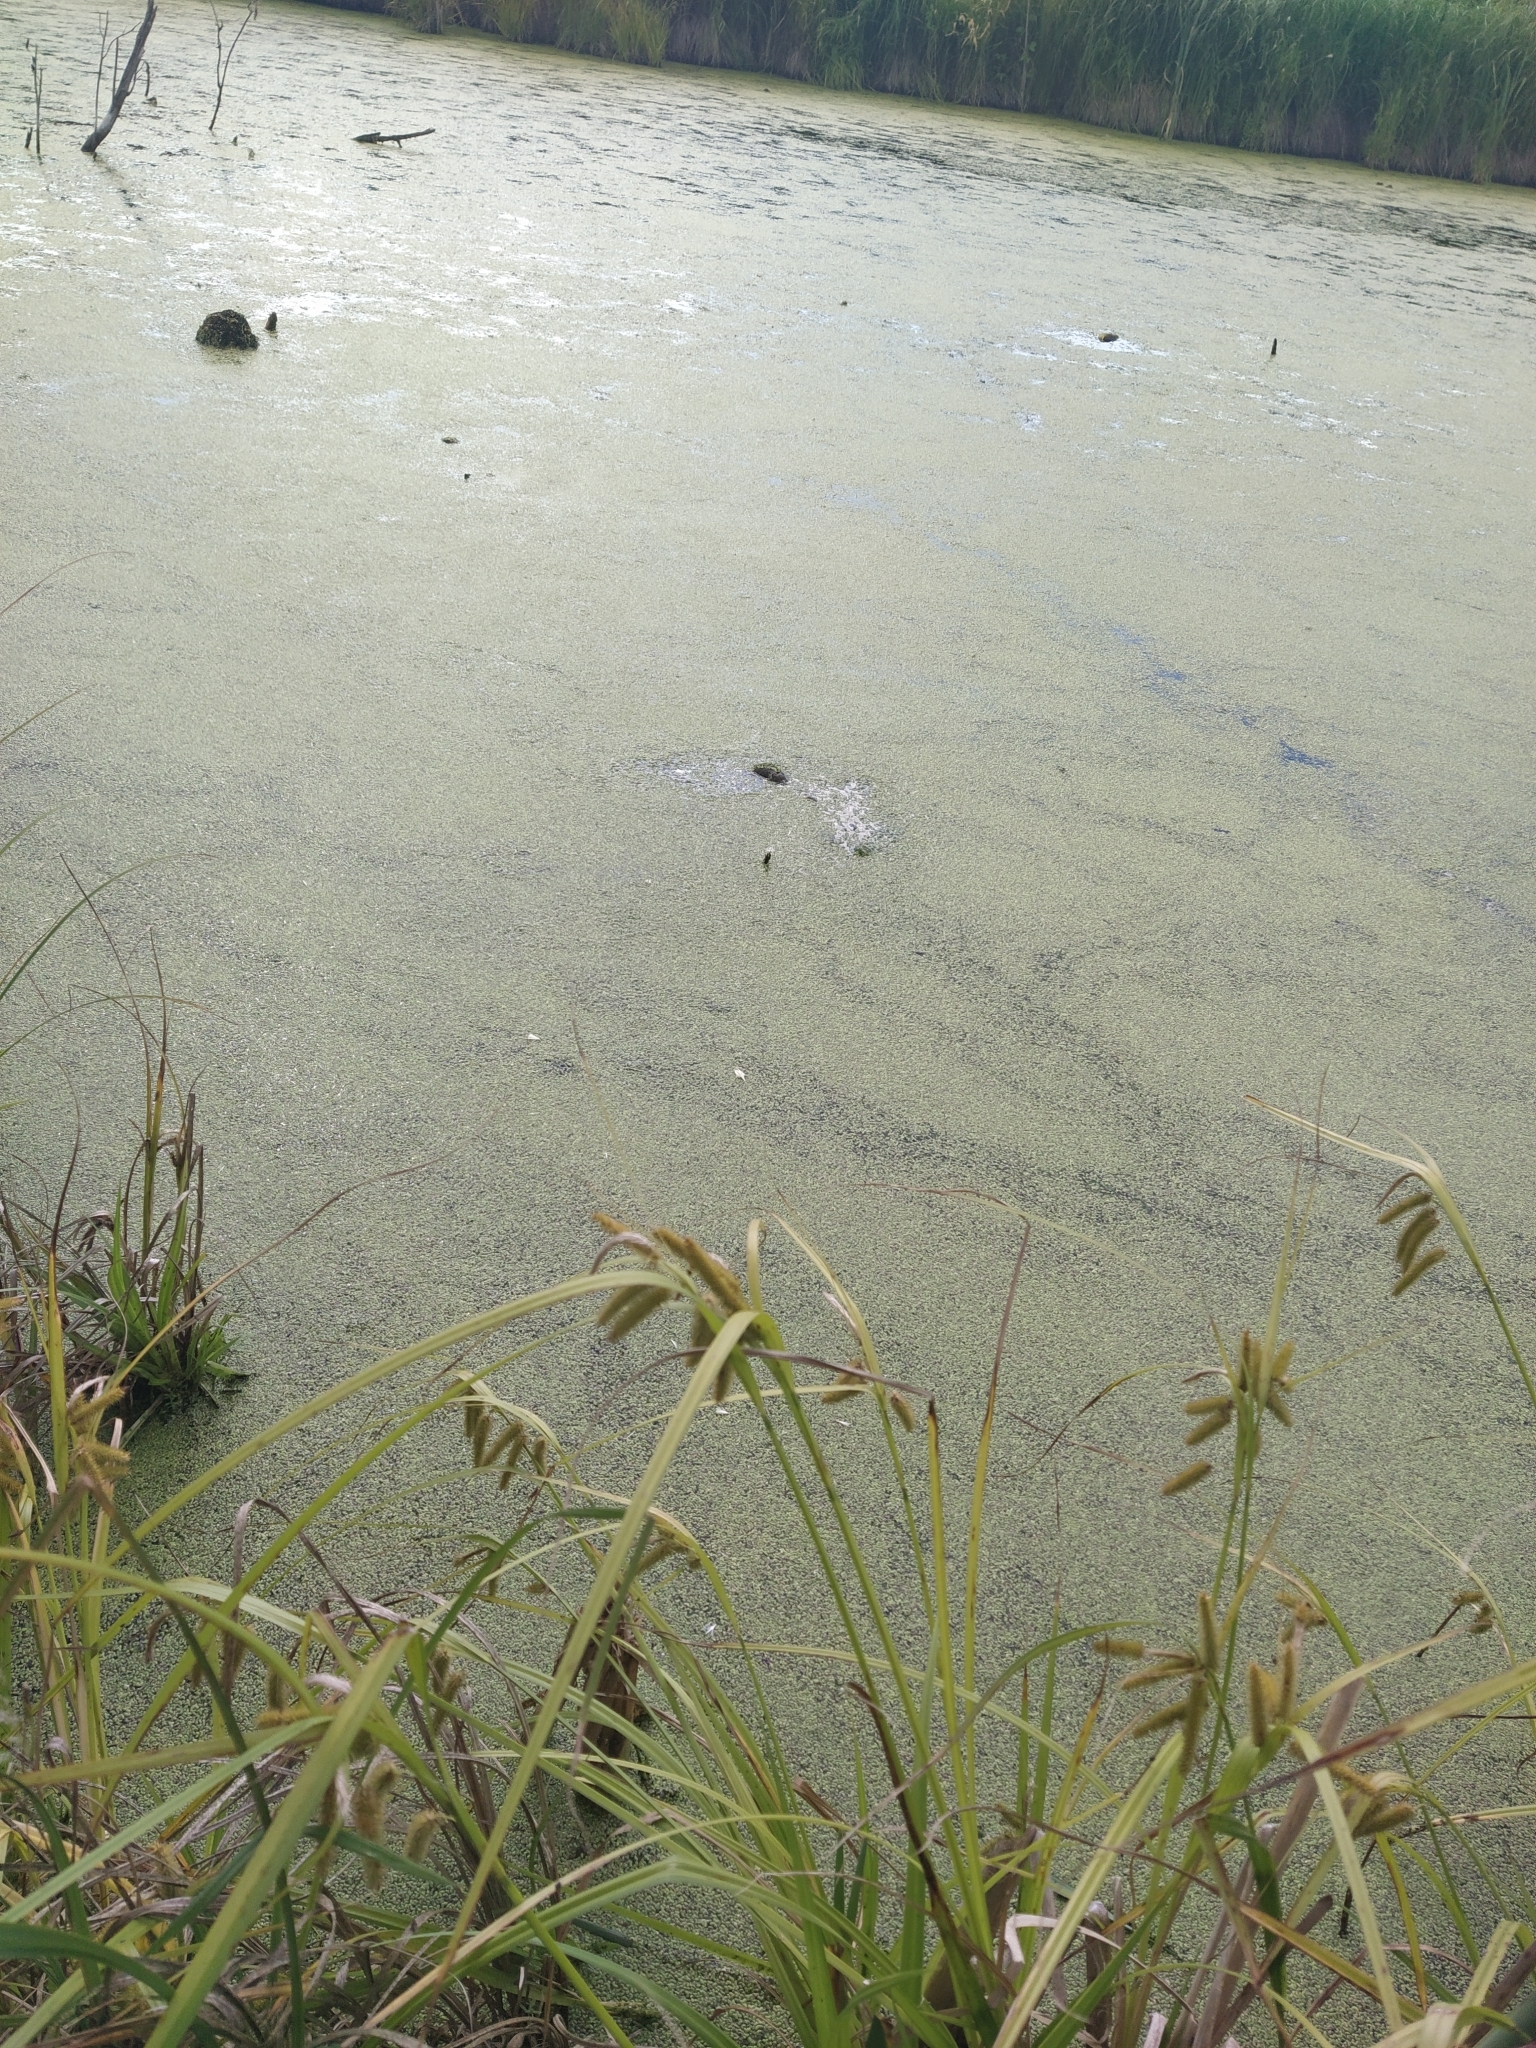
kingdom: Plantae
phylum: Tracheophyta
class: Liliopsida
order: Poales
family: Cyperaceae
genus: Carex
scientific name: Carex pseudocyperus
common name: Cyperus sedge
